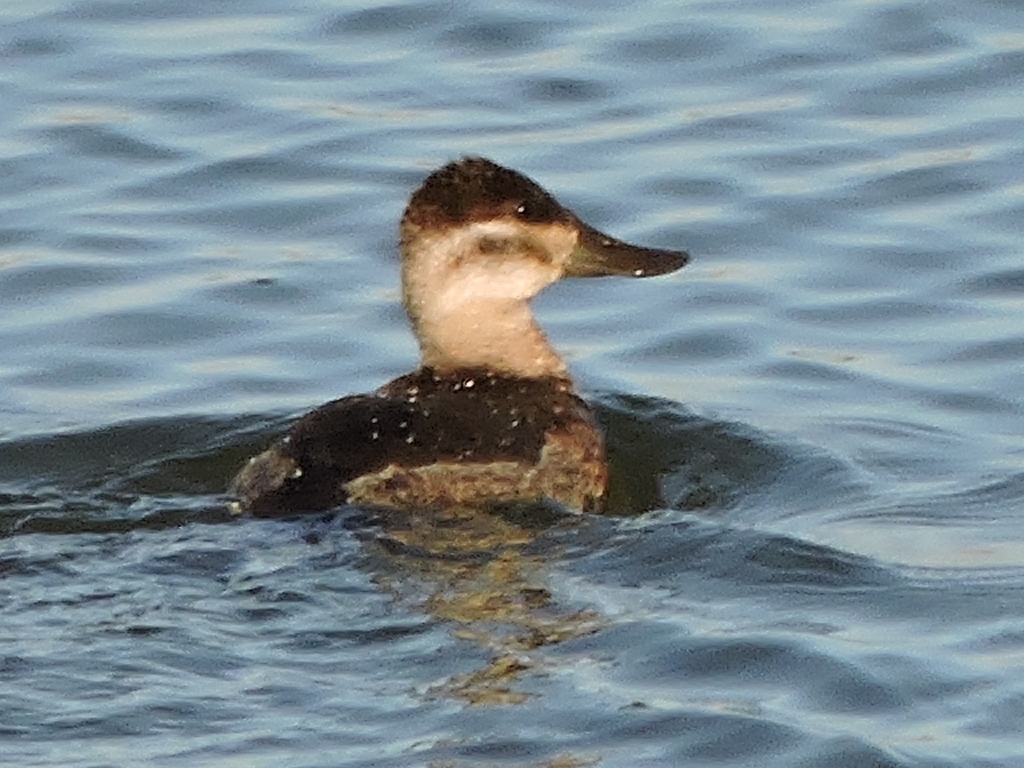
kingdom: Animalia
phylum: Chordata
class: Aves
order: Anseriformes
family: Anatidae
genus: Oxyura
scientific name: Oxyura jamaicensis
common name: Ruddy duck
